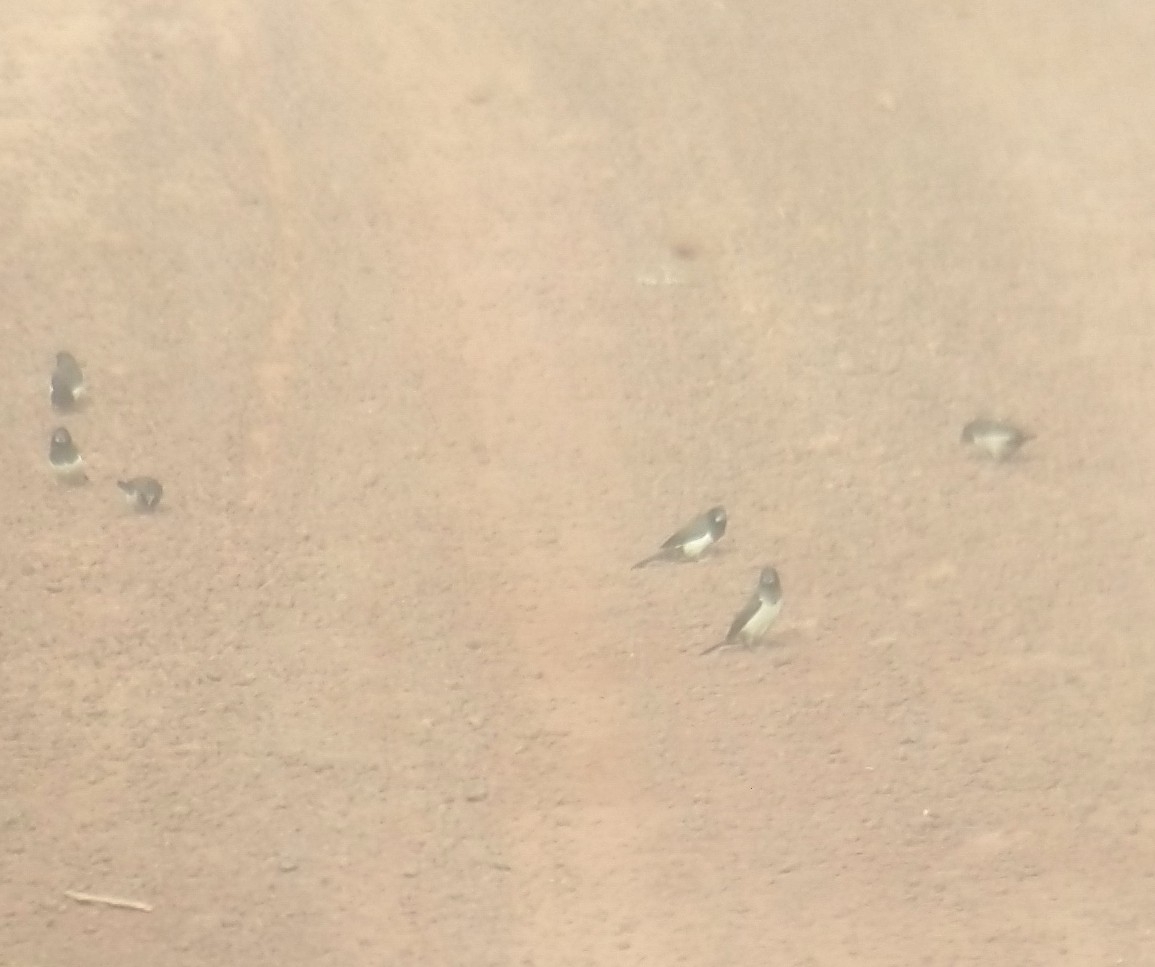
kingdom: Animalia
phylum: Chordata
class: Aves
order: Passeriformes
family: Estrildidae
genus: Lonchura
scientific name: Lonchura striata
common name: White-rumped munia
